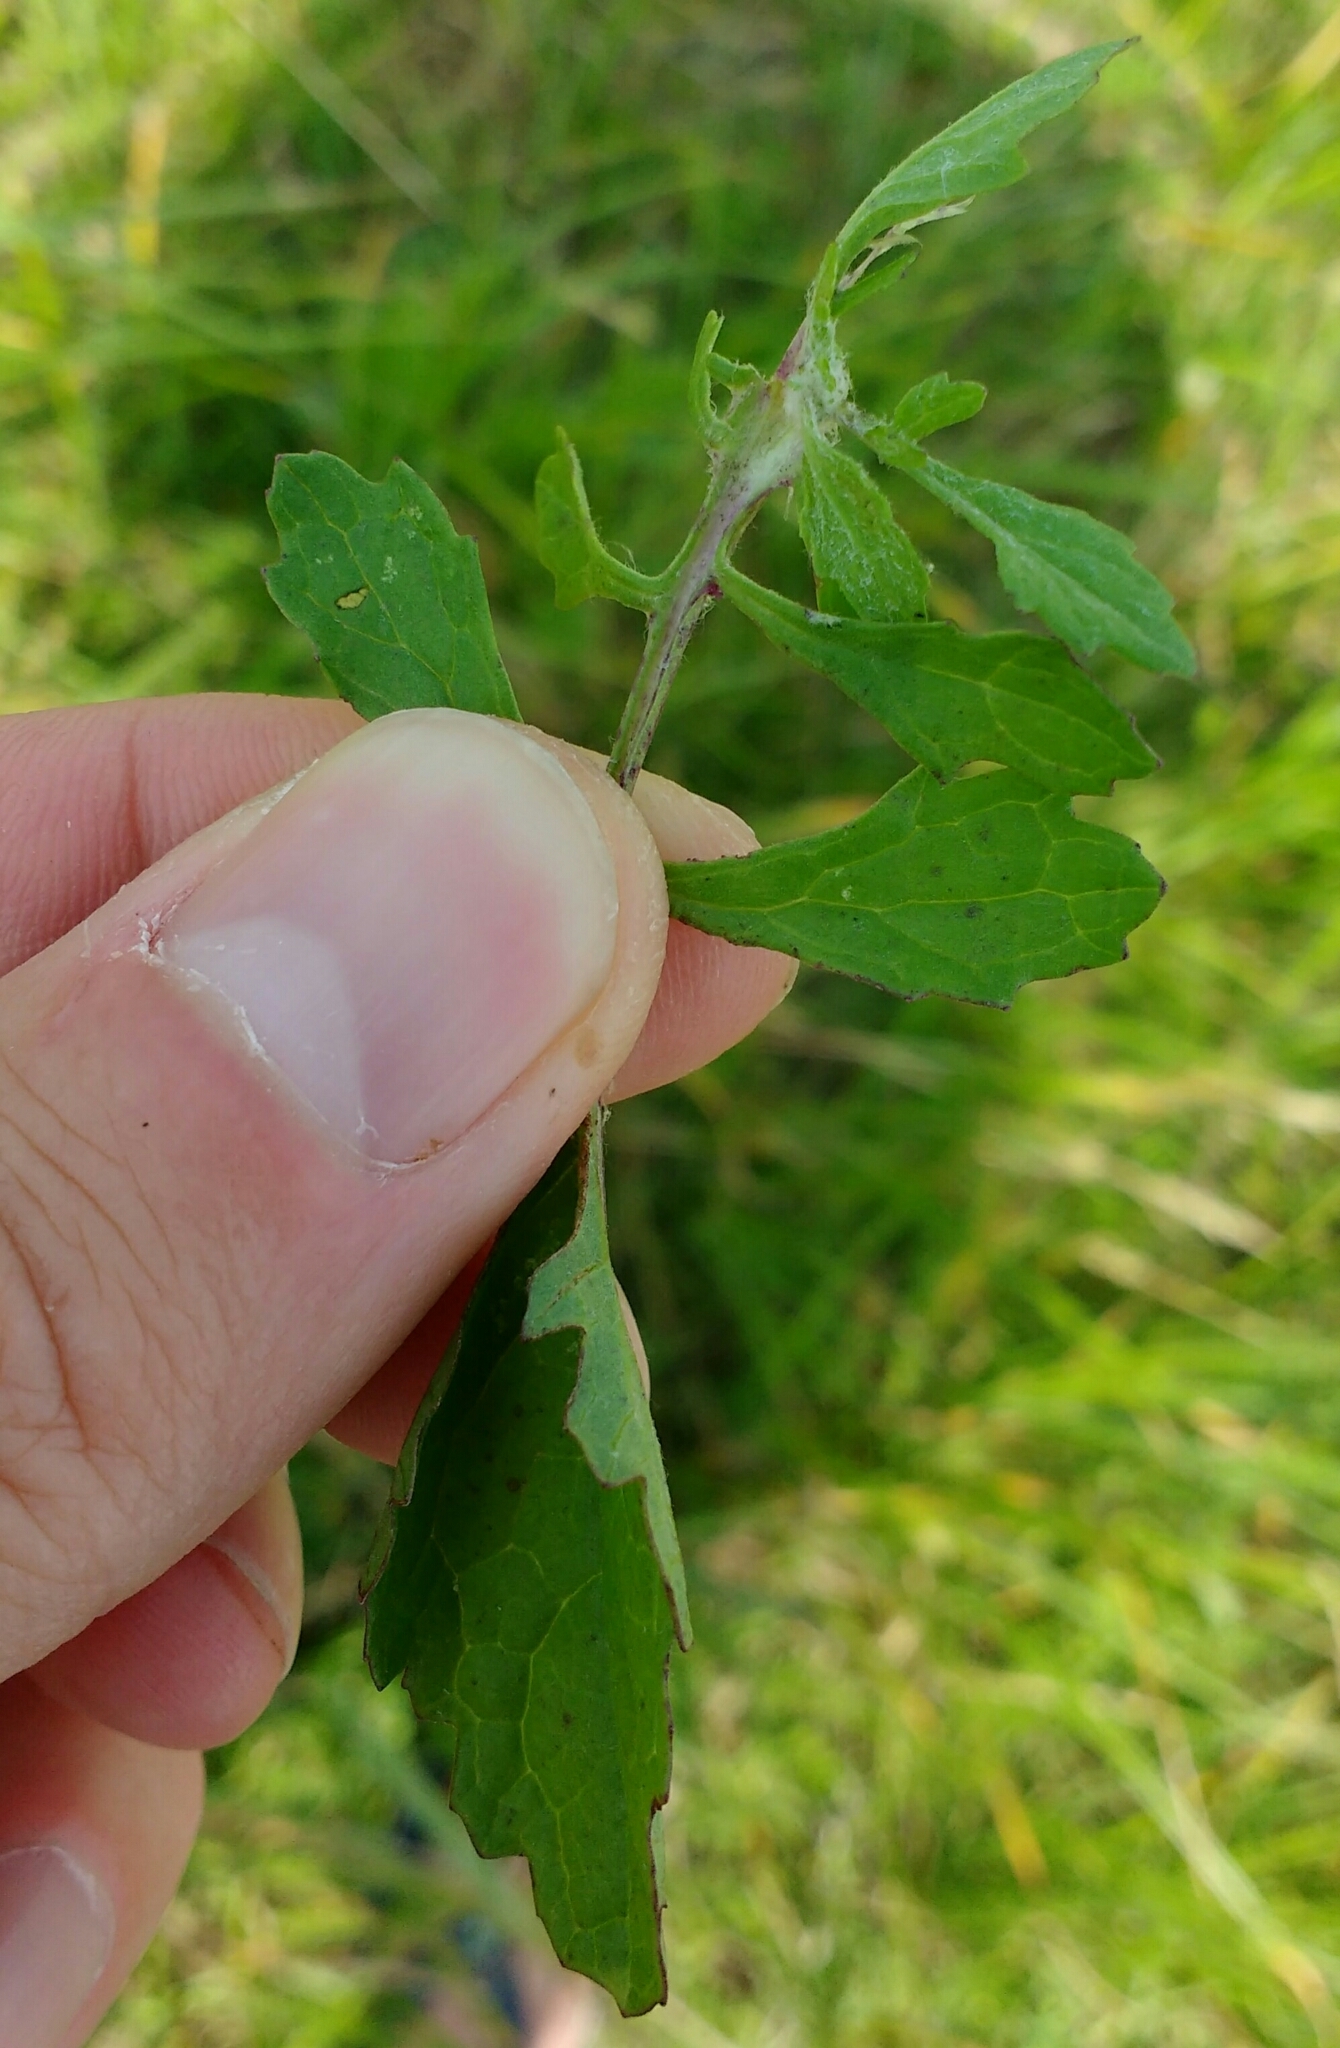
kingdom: Plantae
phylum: Tracheophyta
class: Magnoliopsida
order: Asterales
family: Asteraceae
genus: Jacobaea
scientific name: Jacobaea erratica
